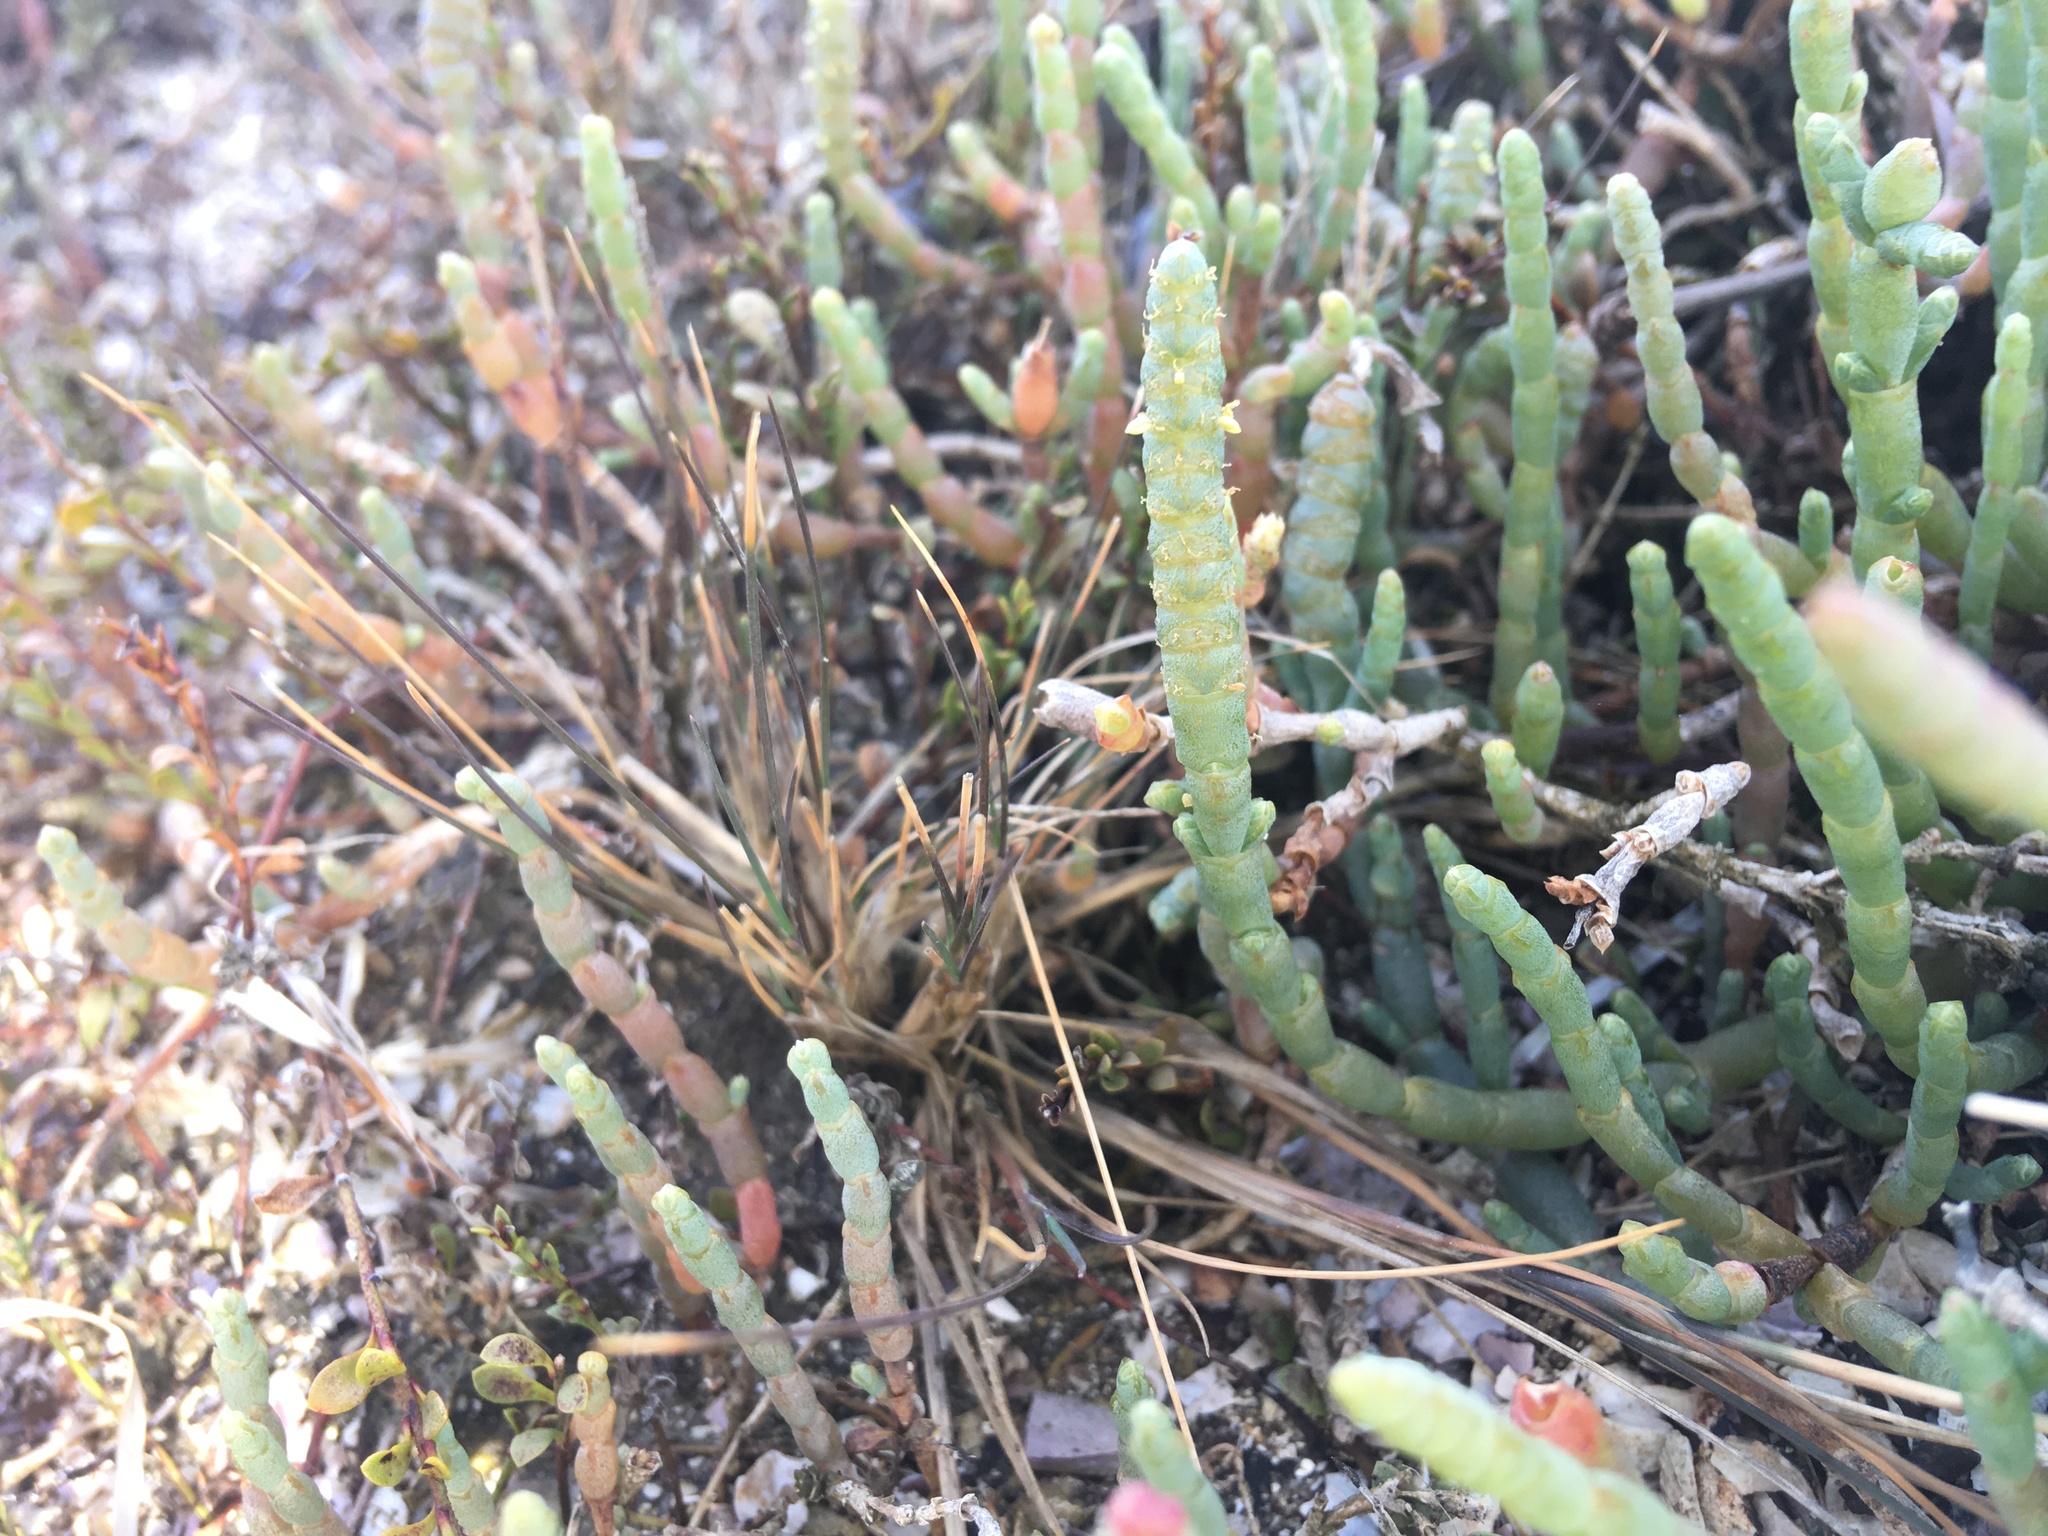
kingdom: Plantae
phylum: Tracheophyta
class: Magnoliopsida
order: Caryophyllales
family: Amaranthaceae
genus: Salicornia
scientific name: Salicornia quinqueflora
